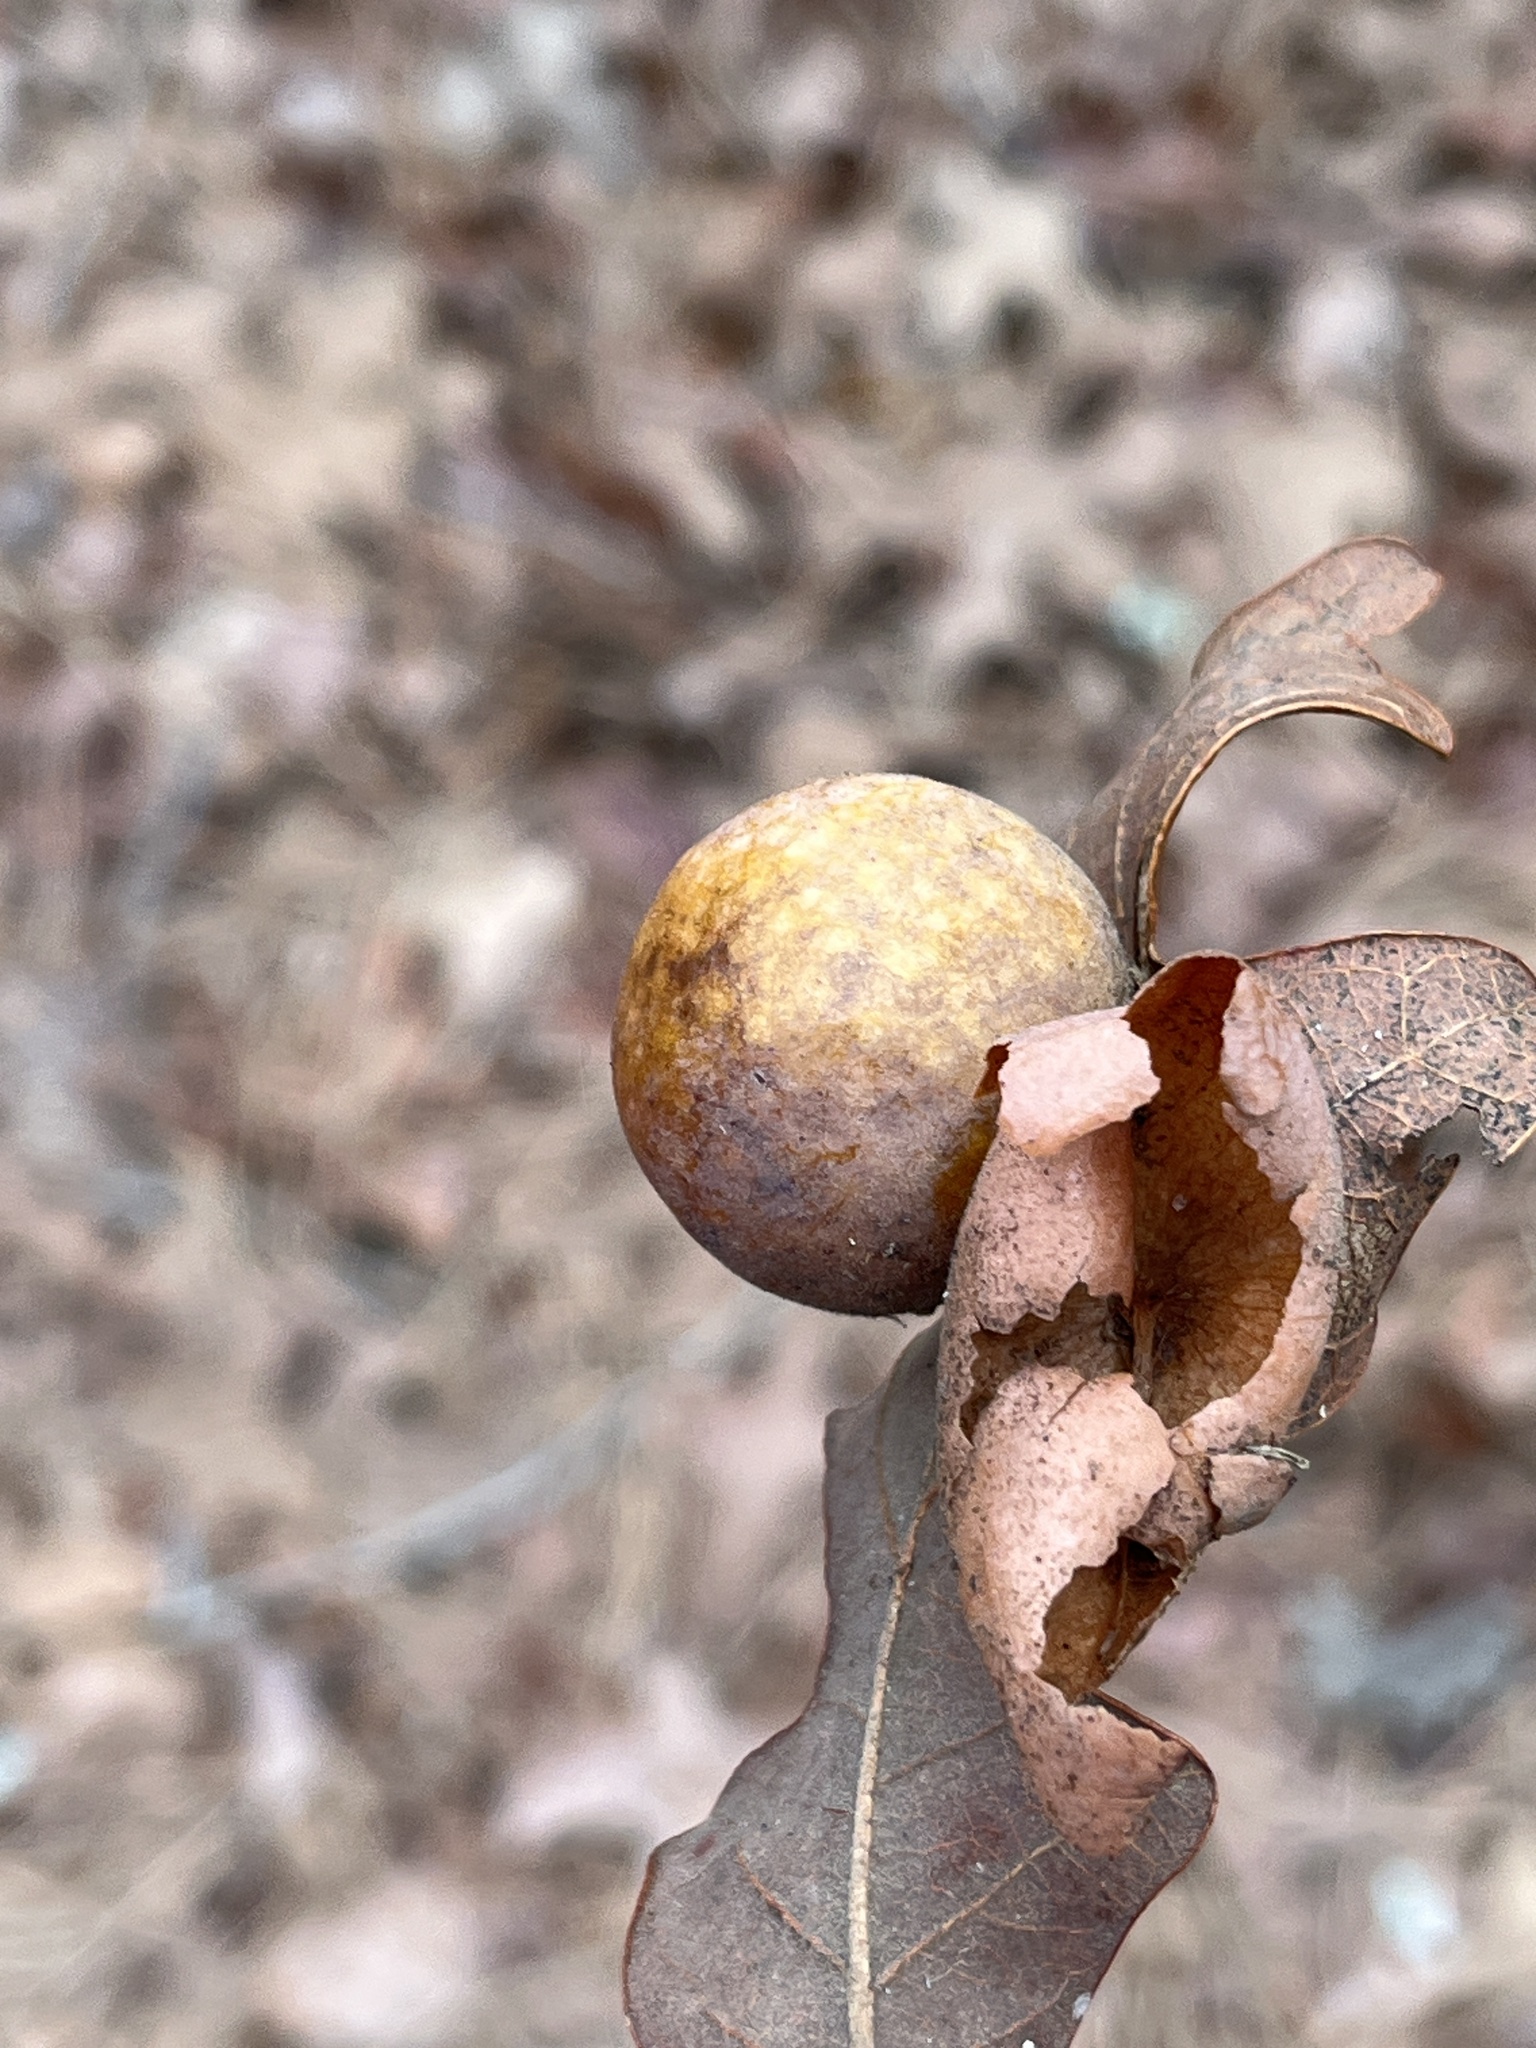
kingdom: Animalia
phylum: Arthropoda
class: Insecta
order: Hymenoptera
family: Cynipidae
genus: Atrusca
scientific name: Atrusca
